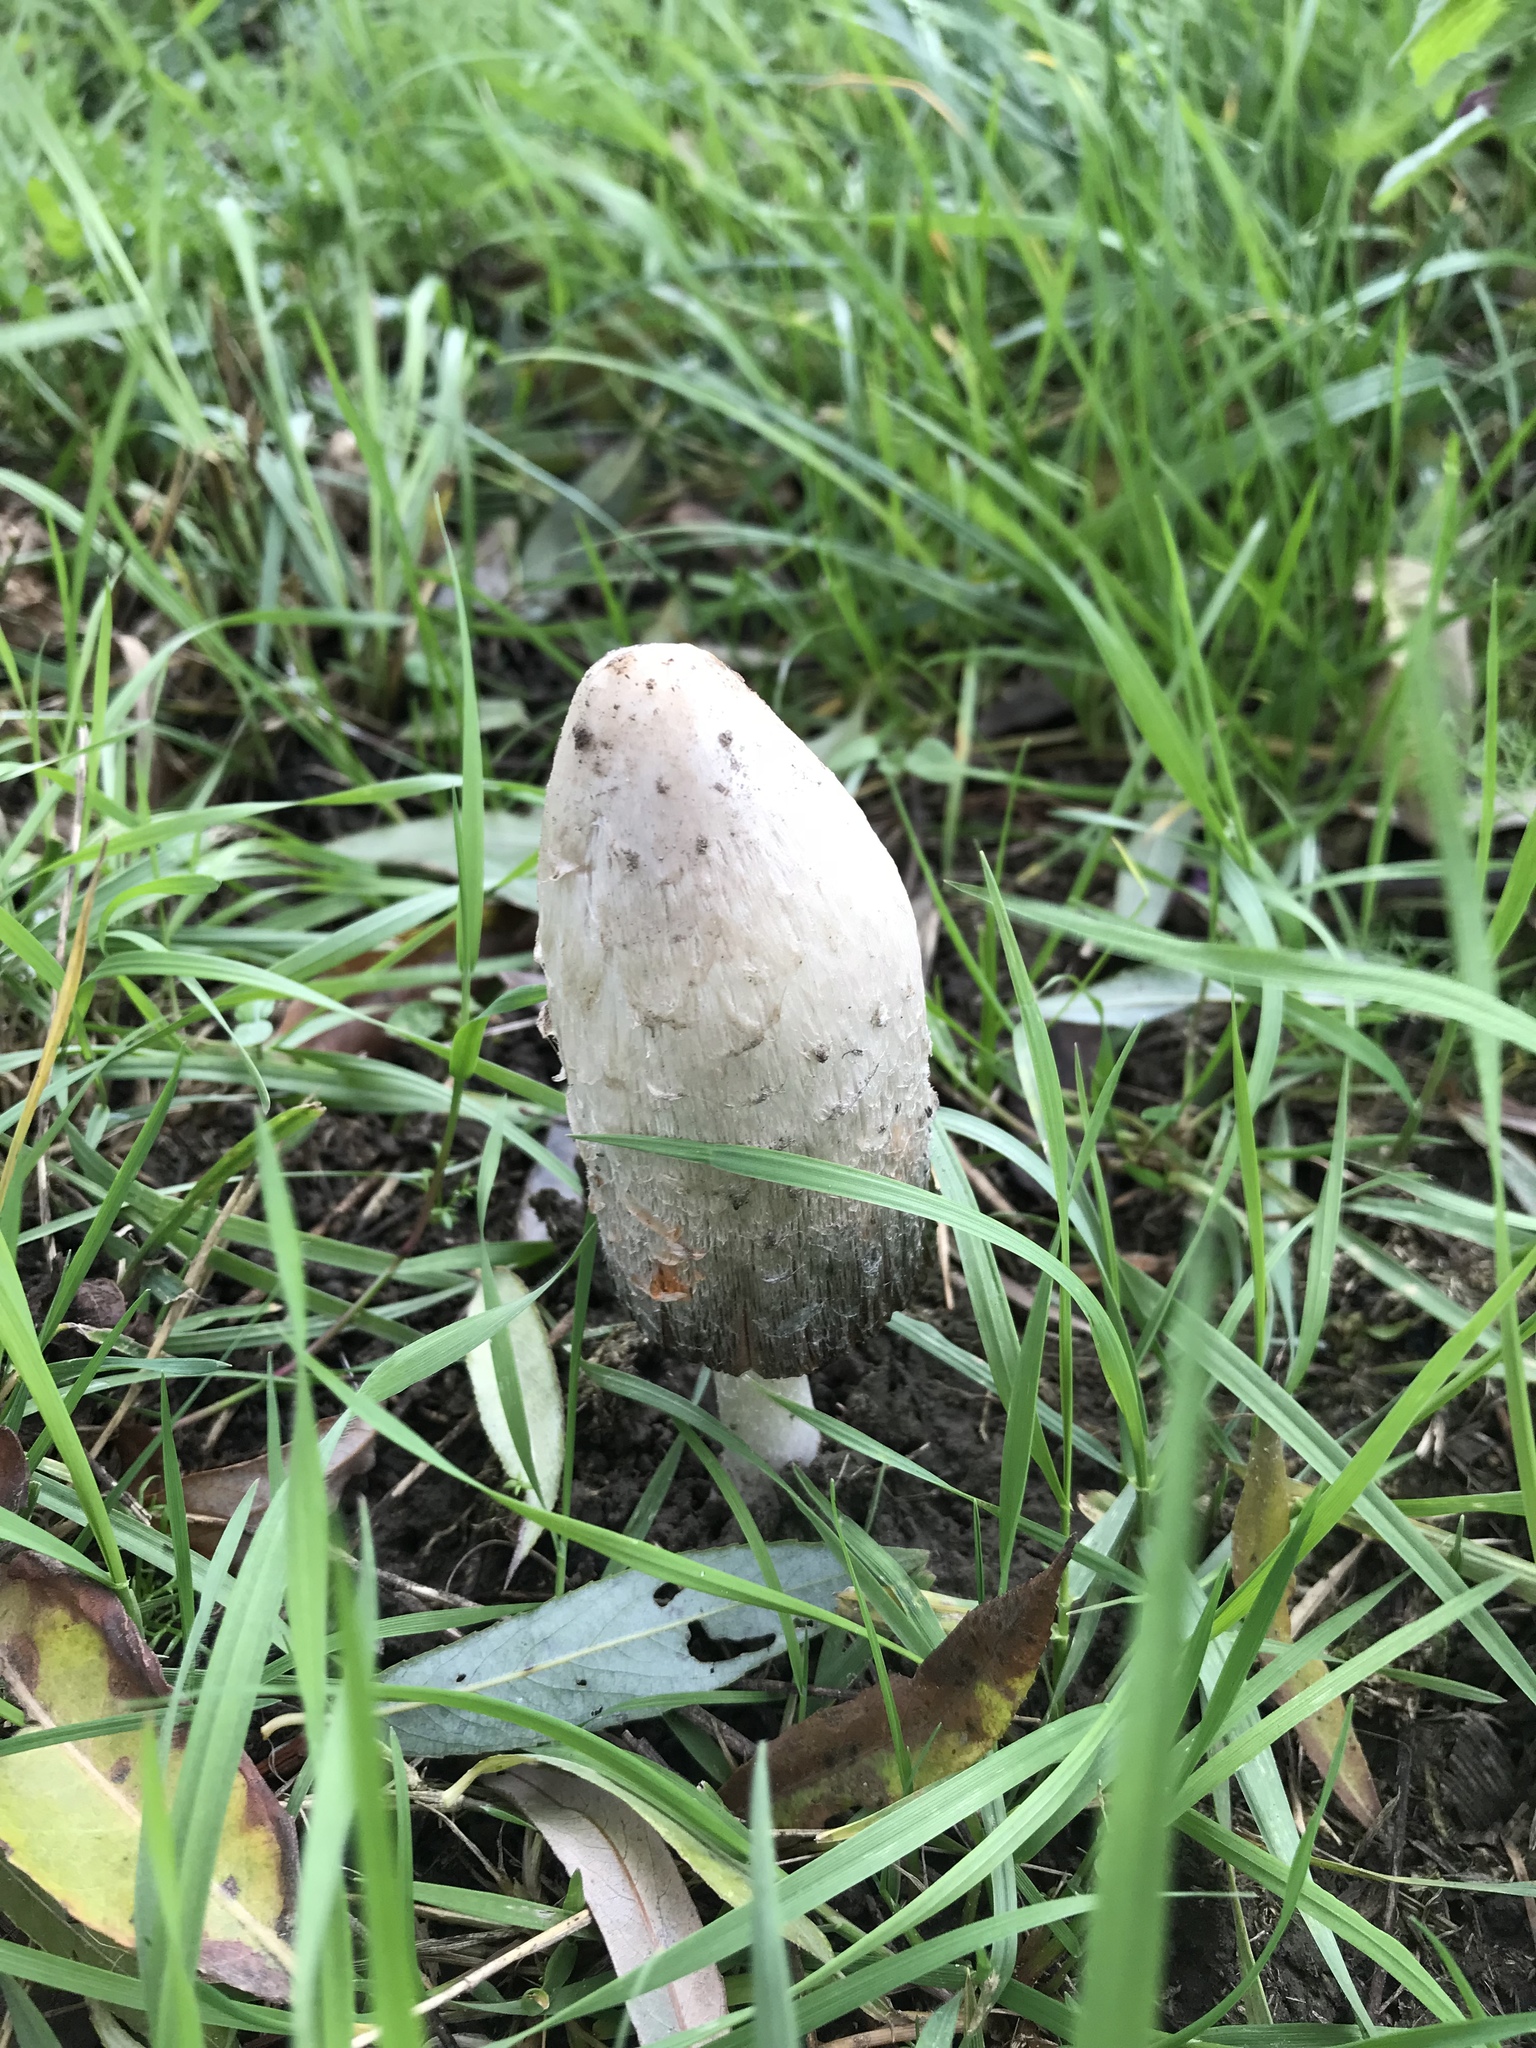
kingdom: Fungi
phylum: Basidiomycota
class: Agaricomycetes
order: Agaricales
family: Agaricaceae
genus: Coprinus
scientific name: Coprinus comatus
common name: Lawyer's wig
